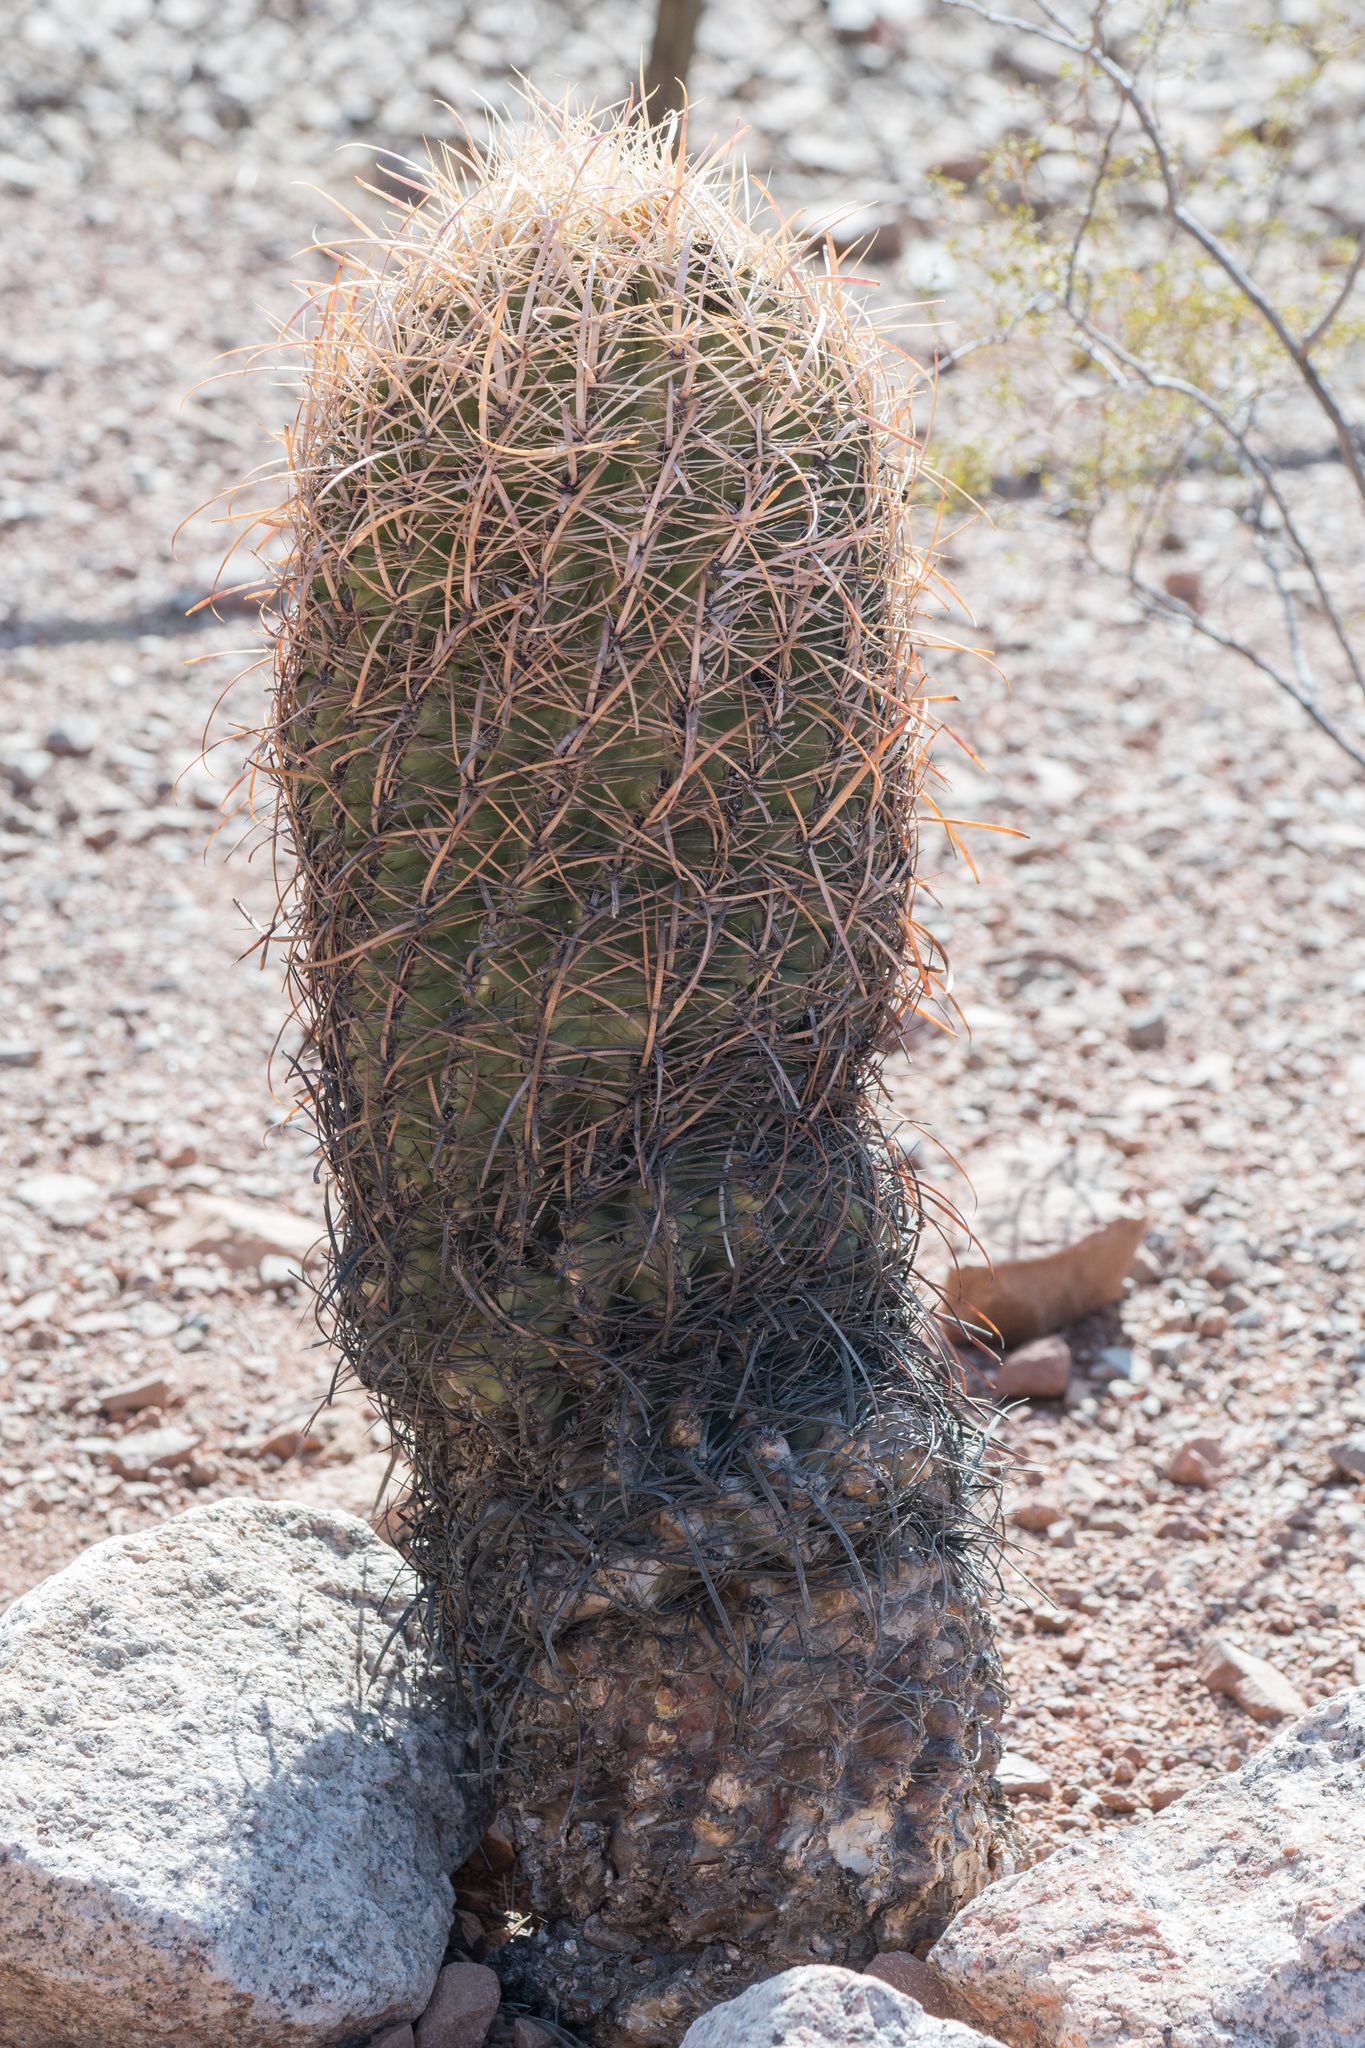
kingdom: Plantae
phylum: Tracheophyta
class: Magnoliopsida
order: Caryophyllales
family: Cactaceae
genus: Ferocactus
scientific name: Ferocactus cylindraceus
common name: California barrel cactus
